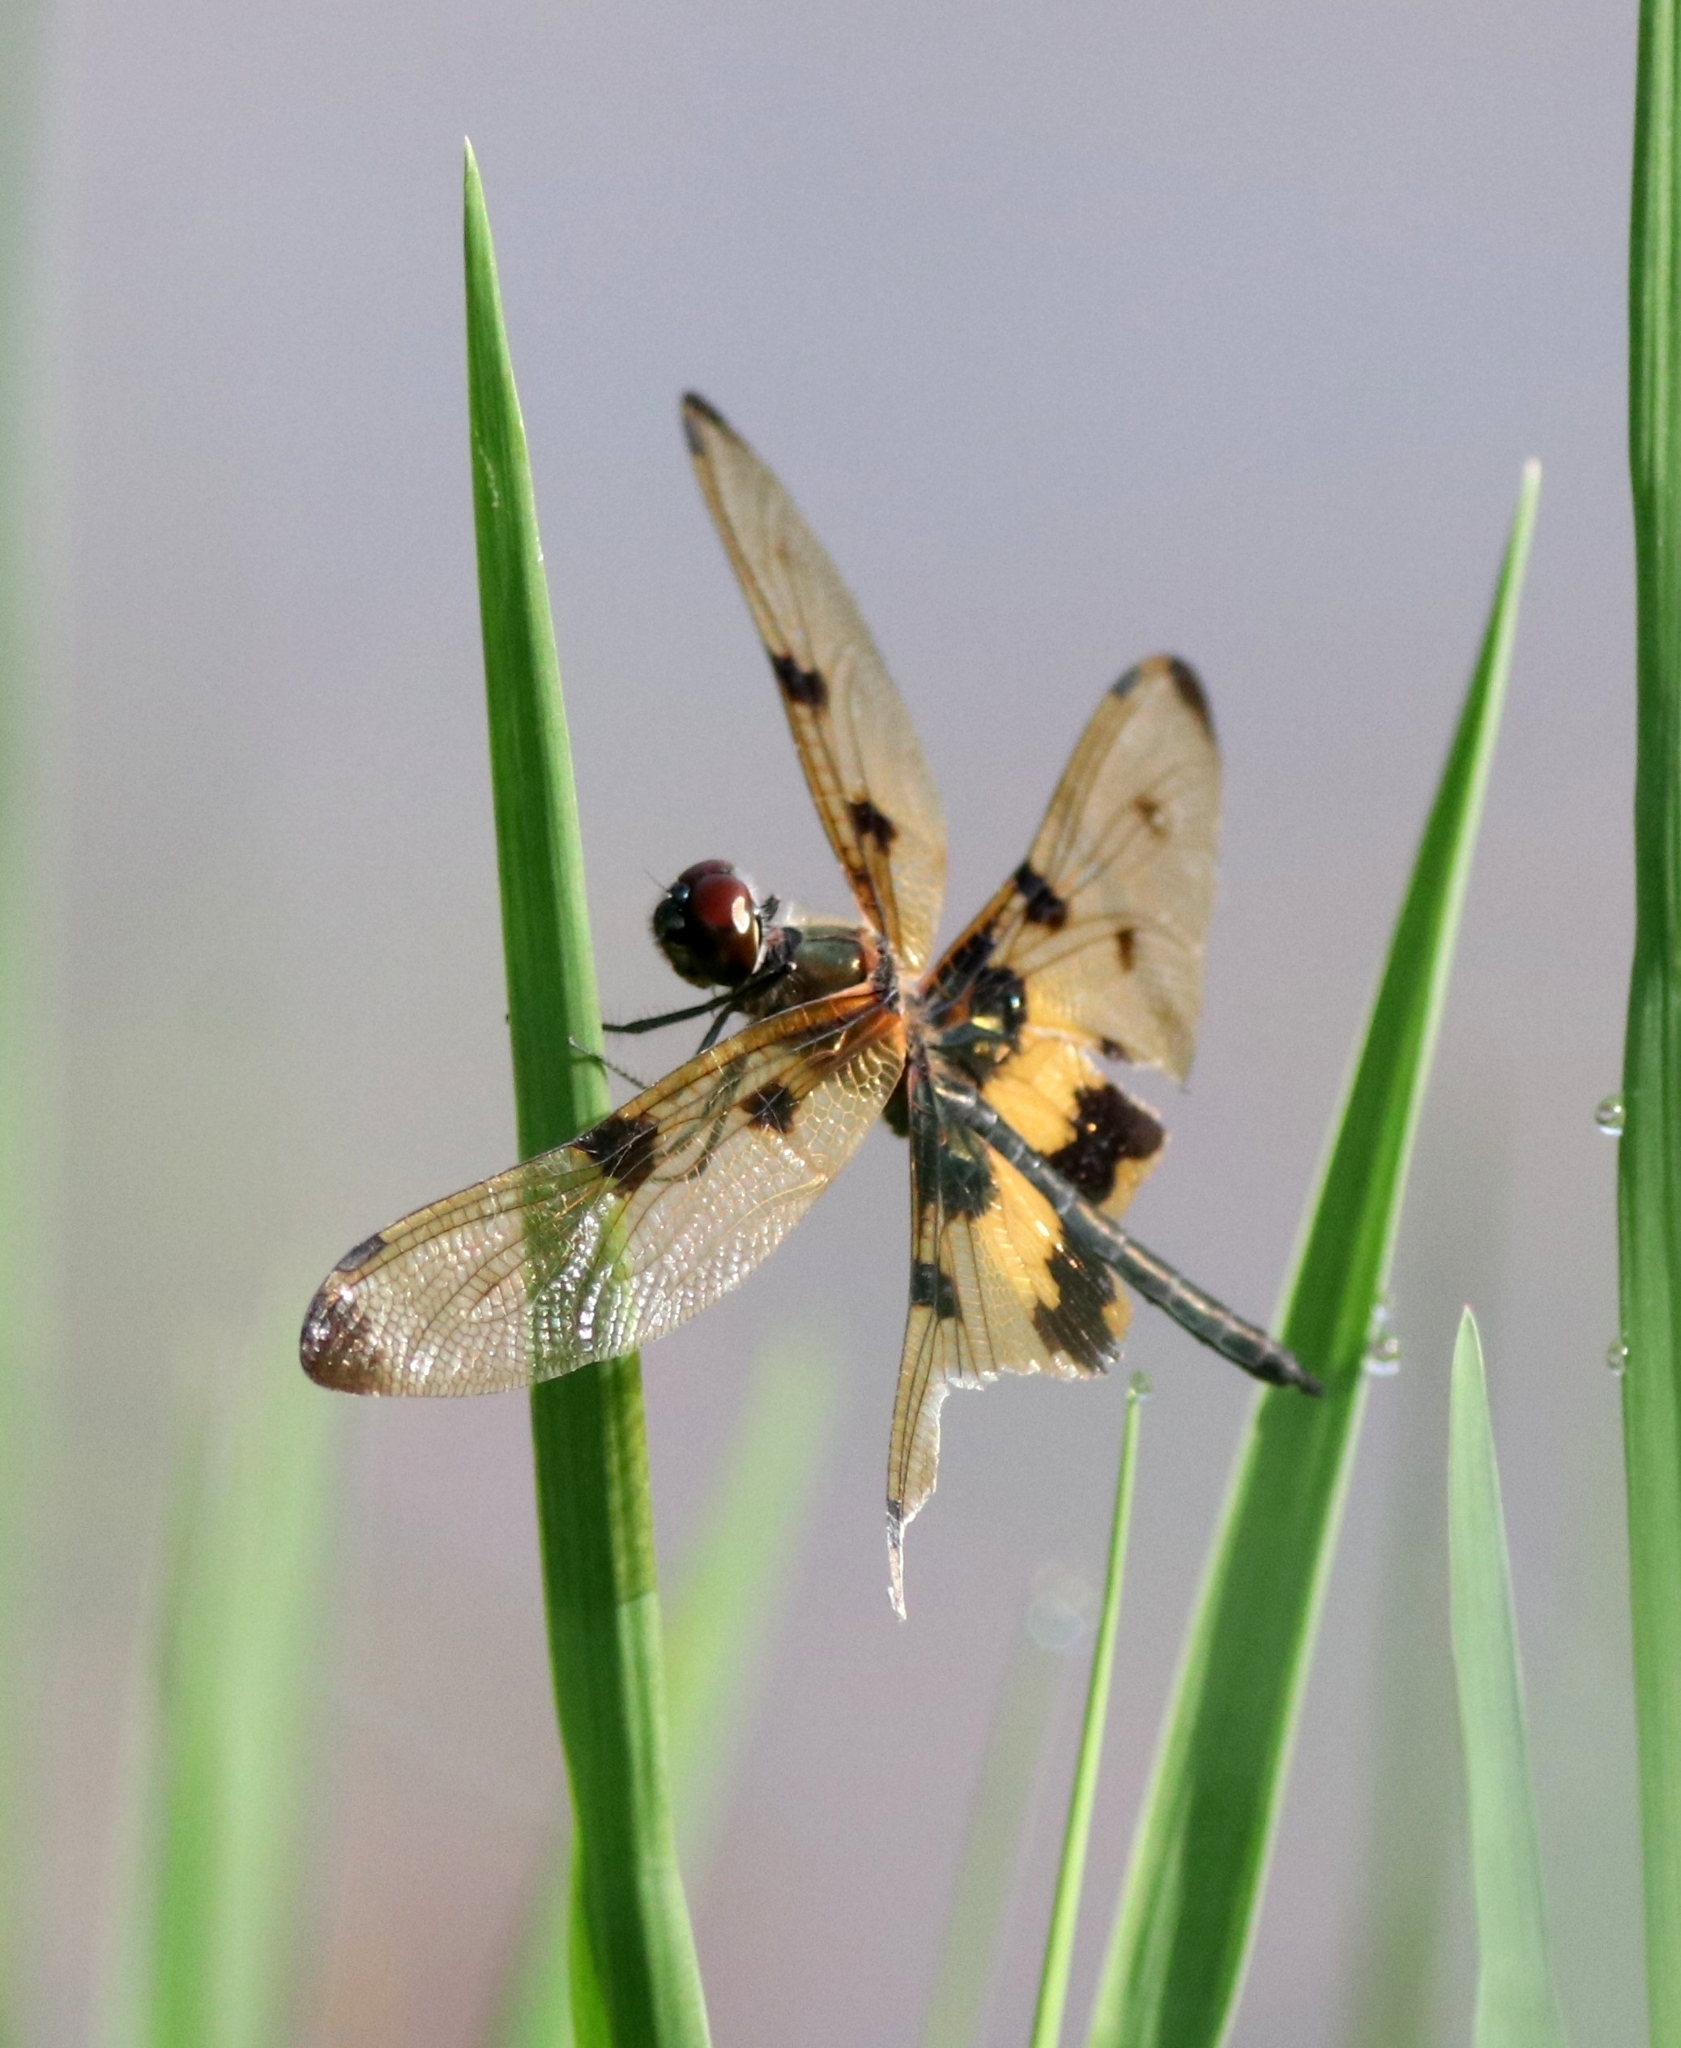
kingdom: Animalia
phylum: Arthropoda
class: Insecta
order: Odonata
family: Libellulidae
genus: Rhyothemis
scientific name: Rhyothemis variegata
